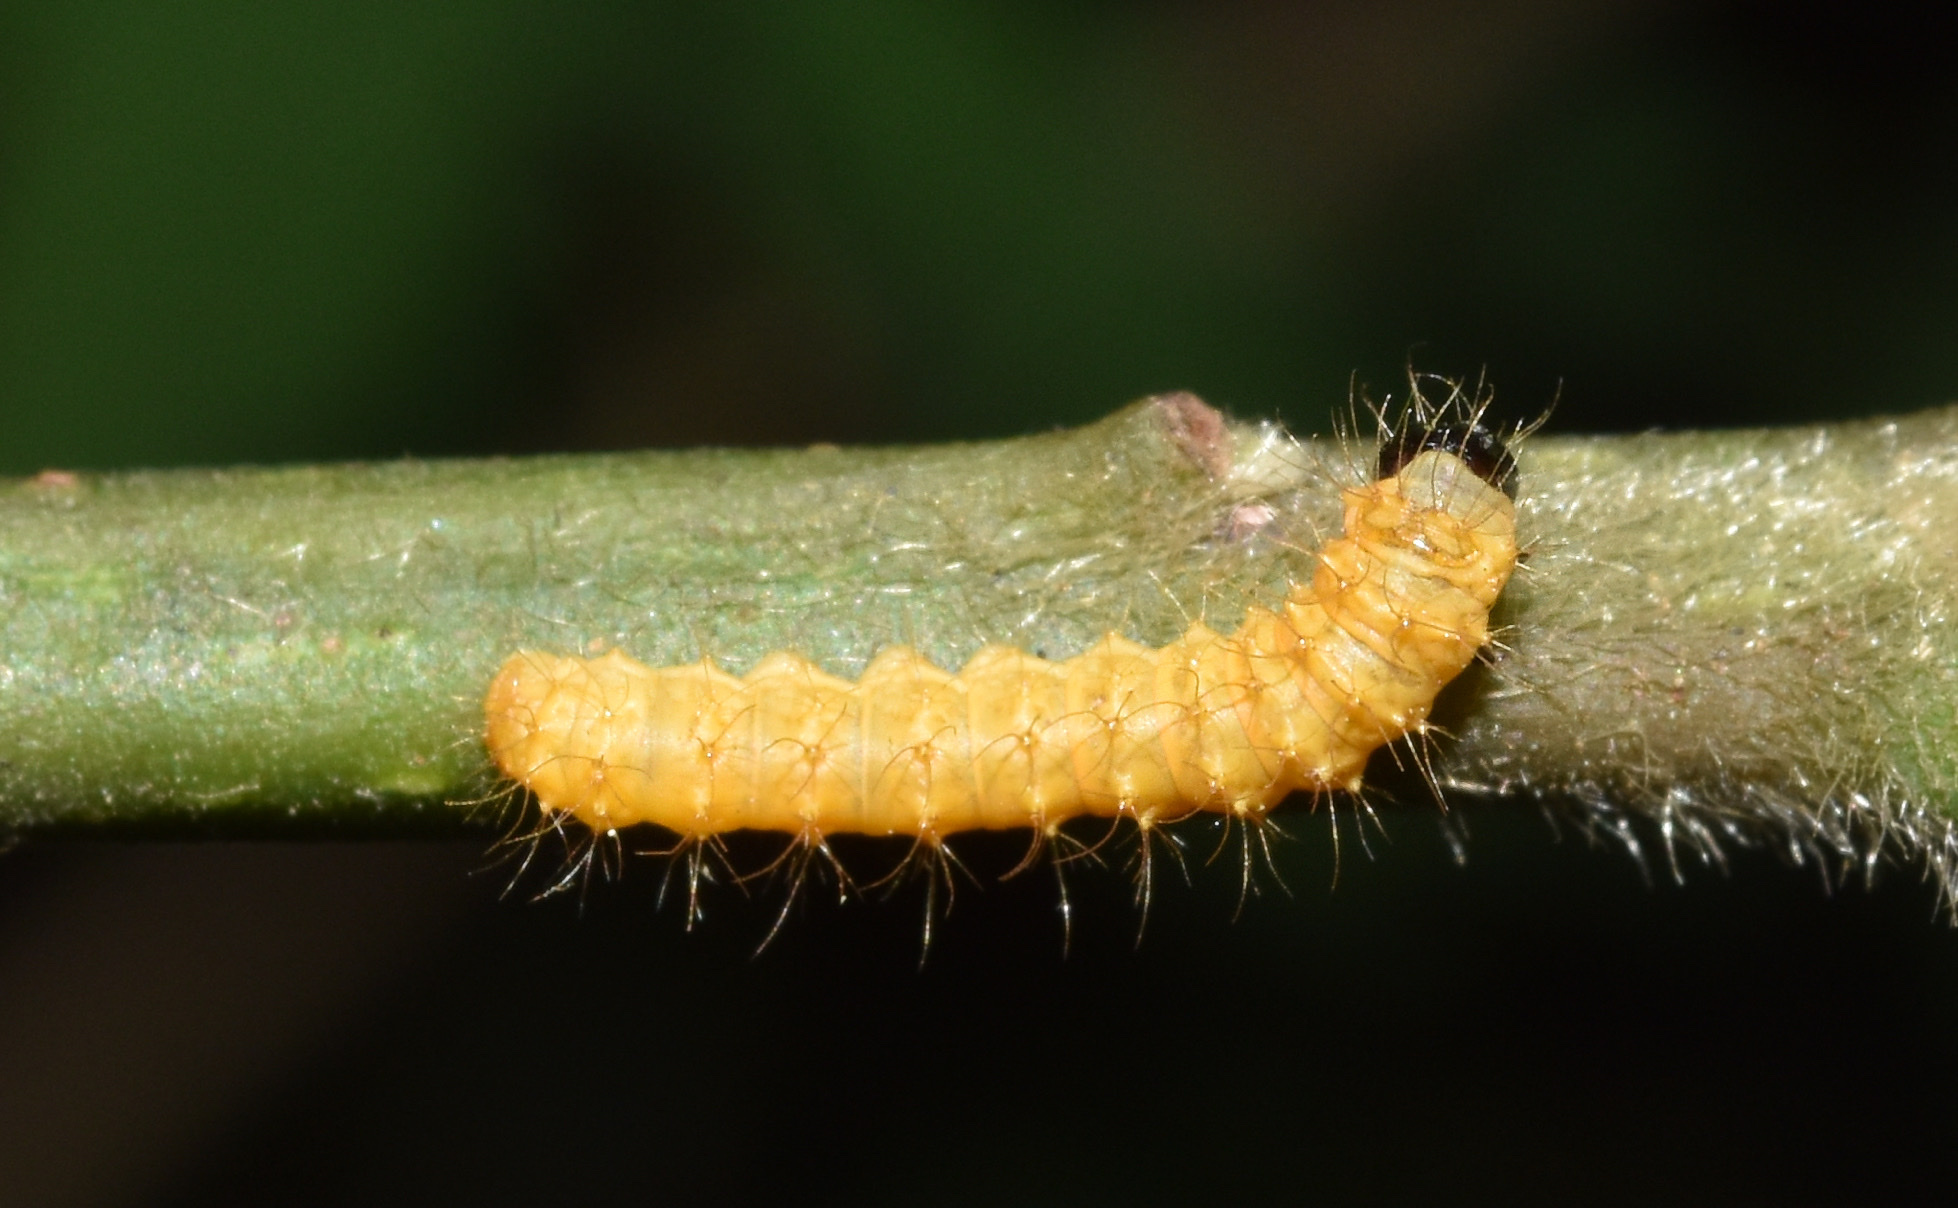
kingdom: Animalia
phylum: Arthropoda
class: Insecta
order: Lepidoptera
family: Saturniidae
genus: Nudaurelia
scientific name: Nudaurelia wahlbergi
